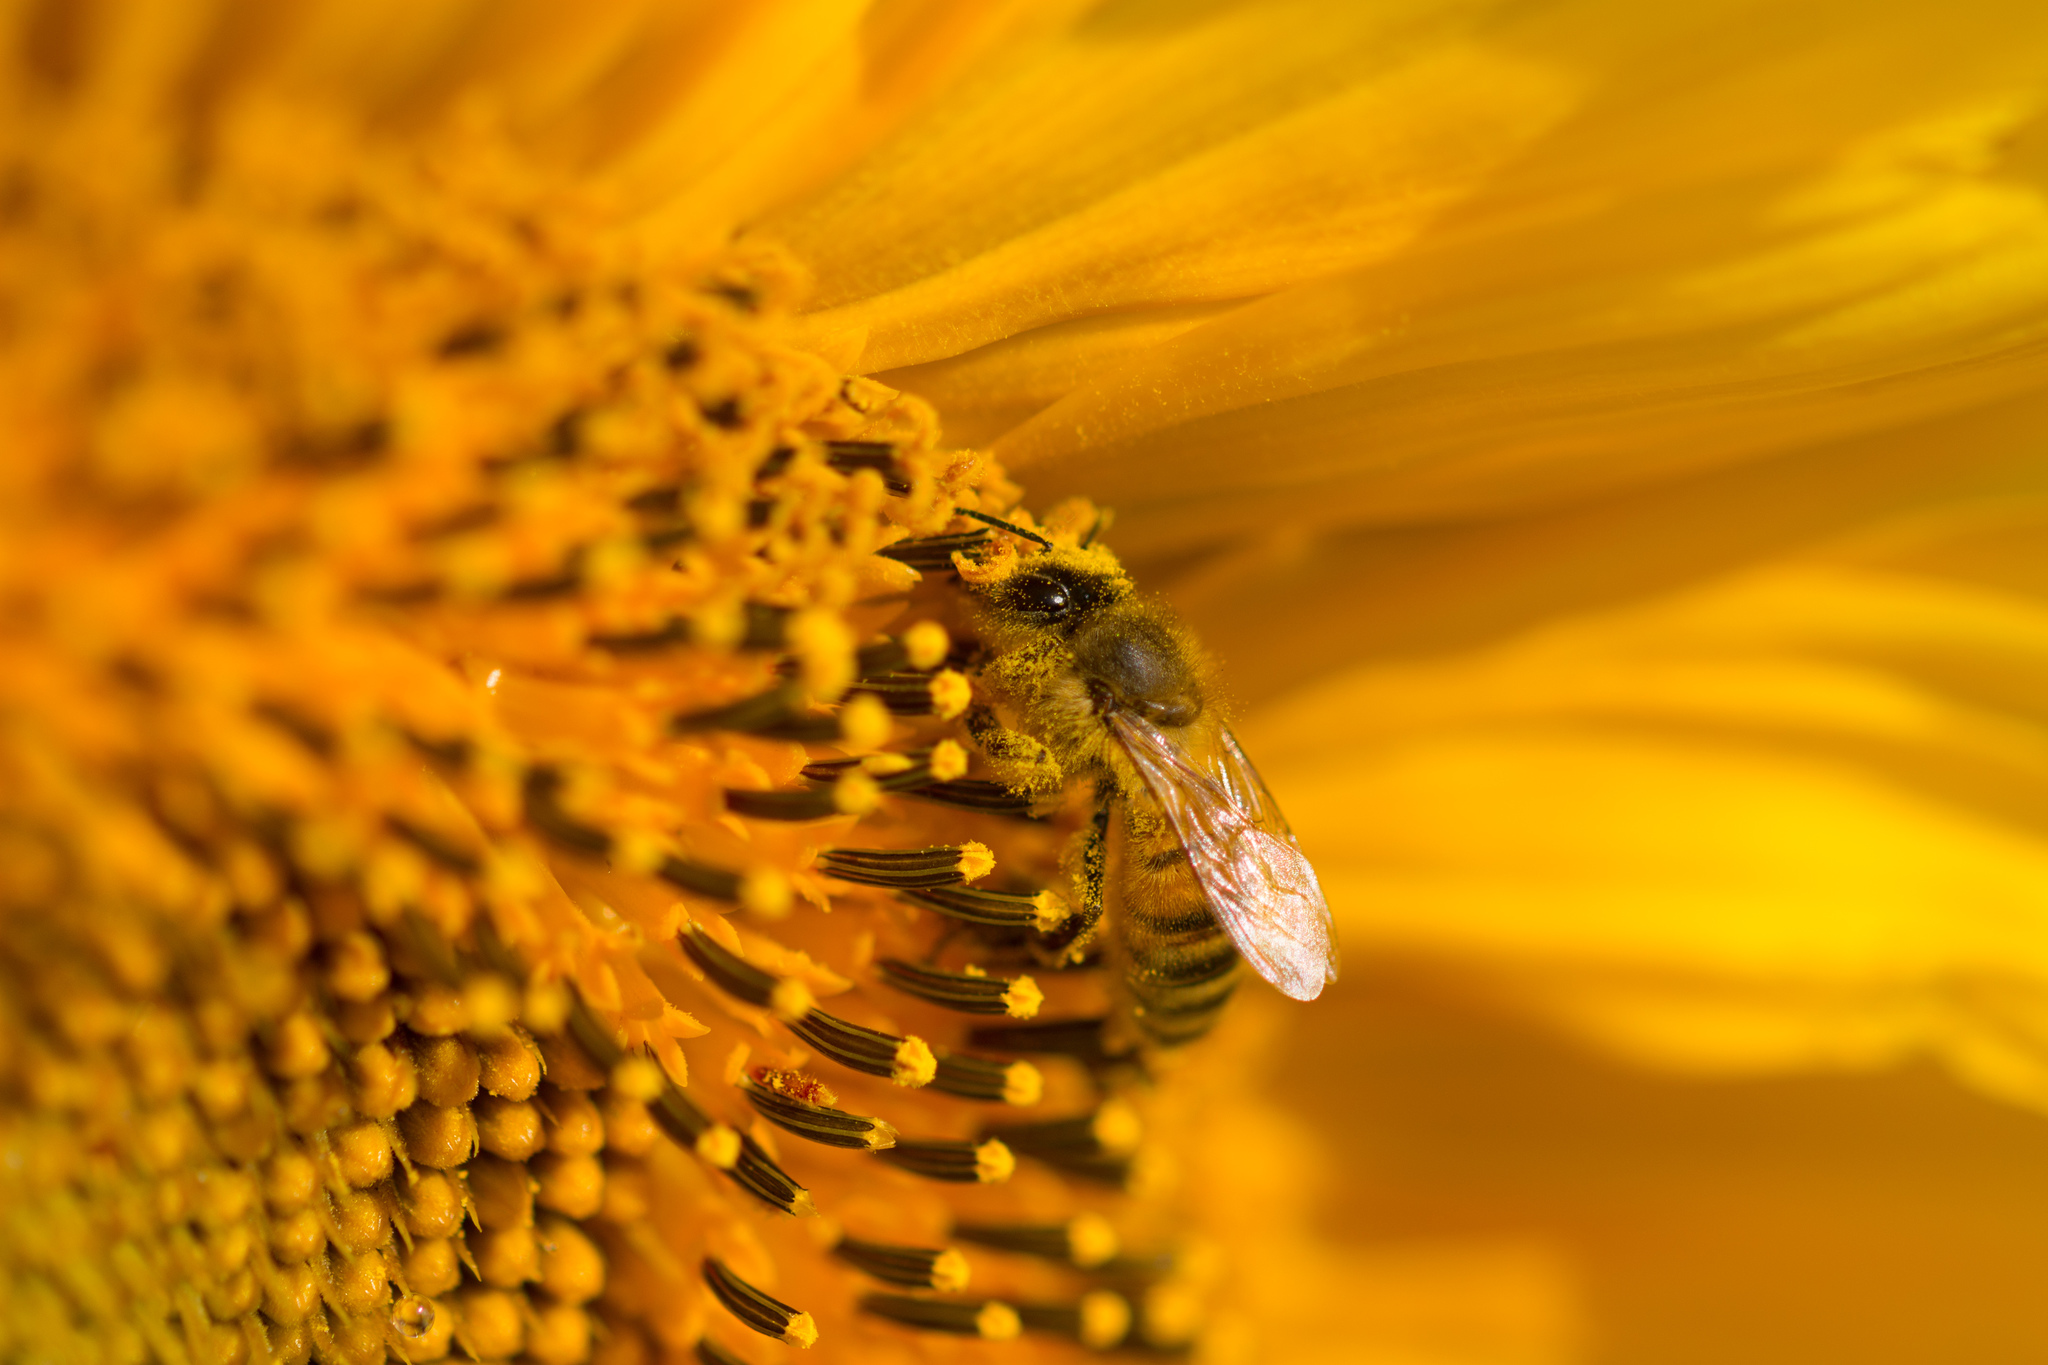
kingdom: Animalia
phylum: Arthropoda
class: Insecta
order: Hymenoptera
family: Apidae
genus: Apis
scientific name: Apis mellifera
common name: Honey bee
